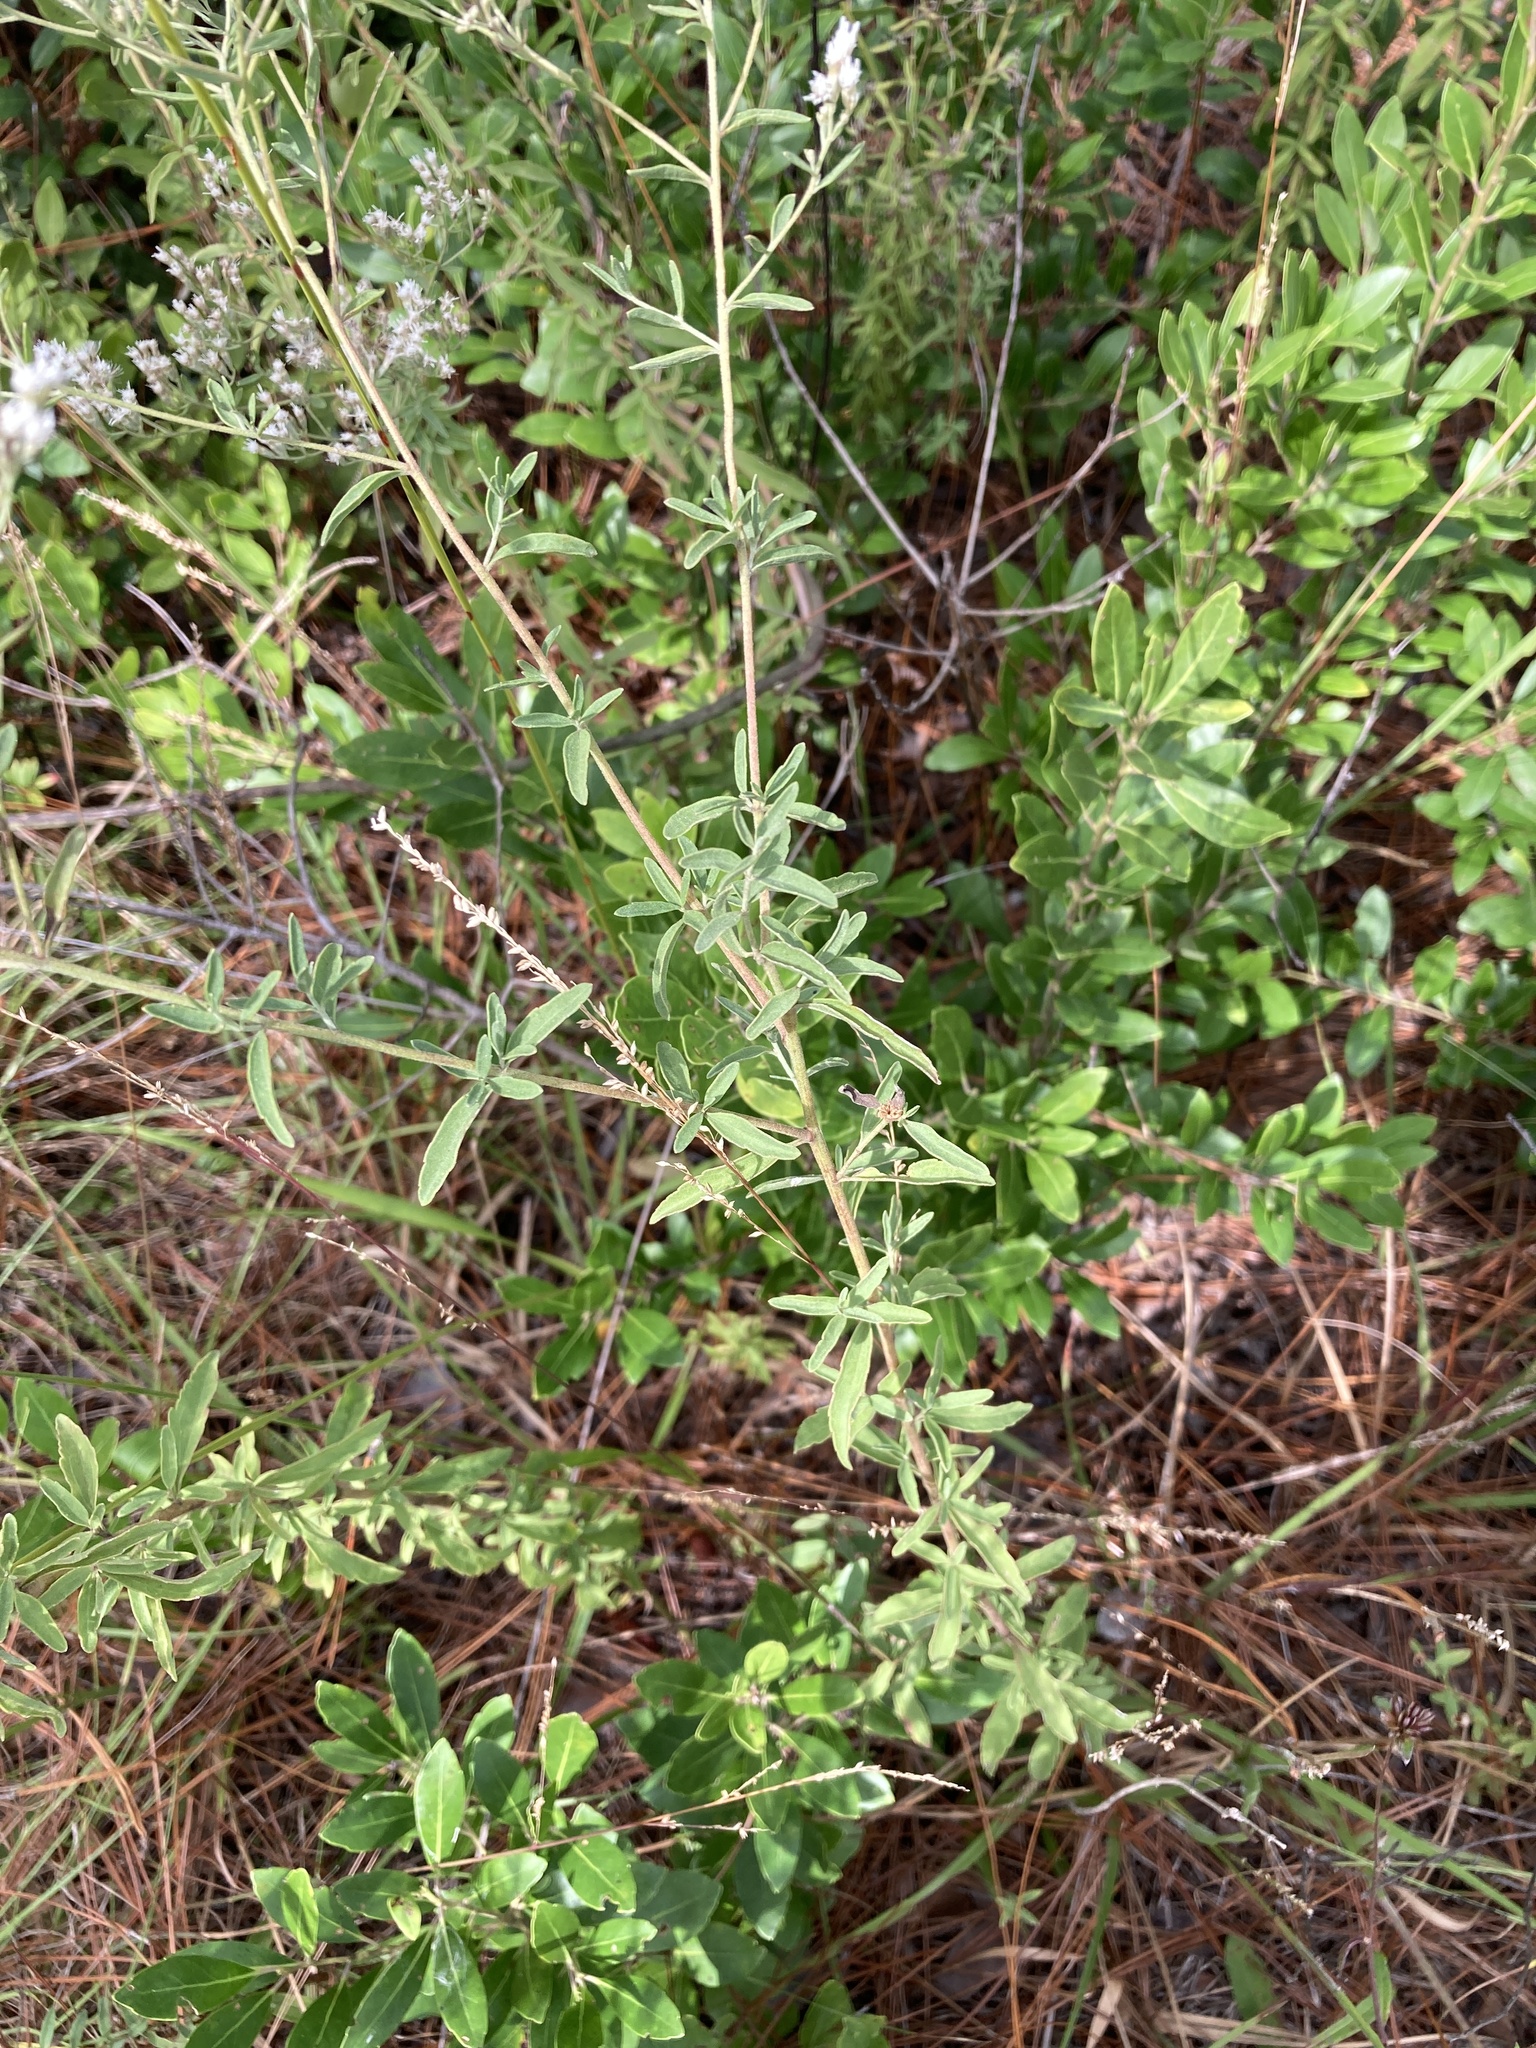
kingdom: Plantae
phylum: Tracheophyta
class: Magnoliopsida
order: Asterales
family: Asteraceae
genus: Eupatorium
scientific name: Eupatorium mohrii
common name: Mohr's thoroughwort
